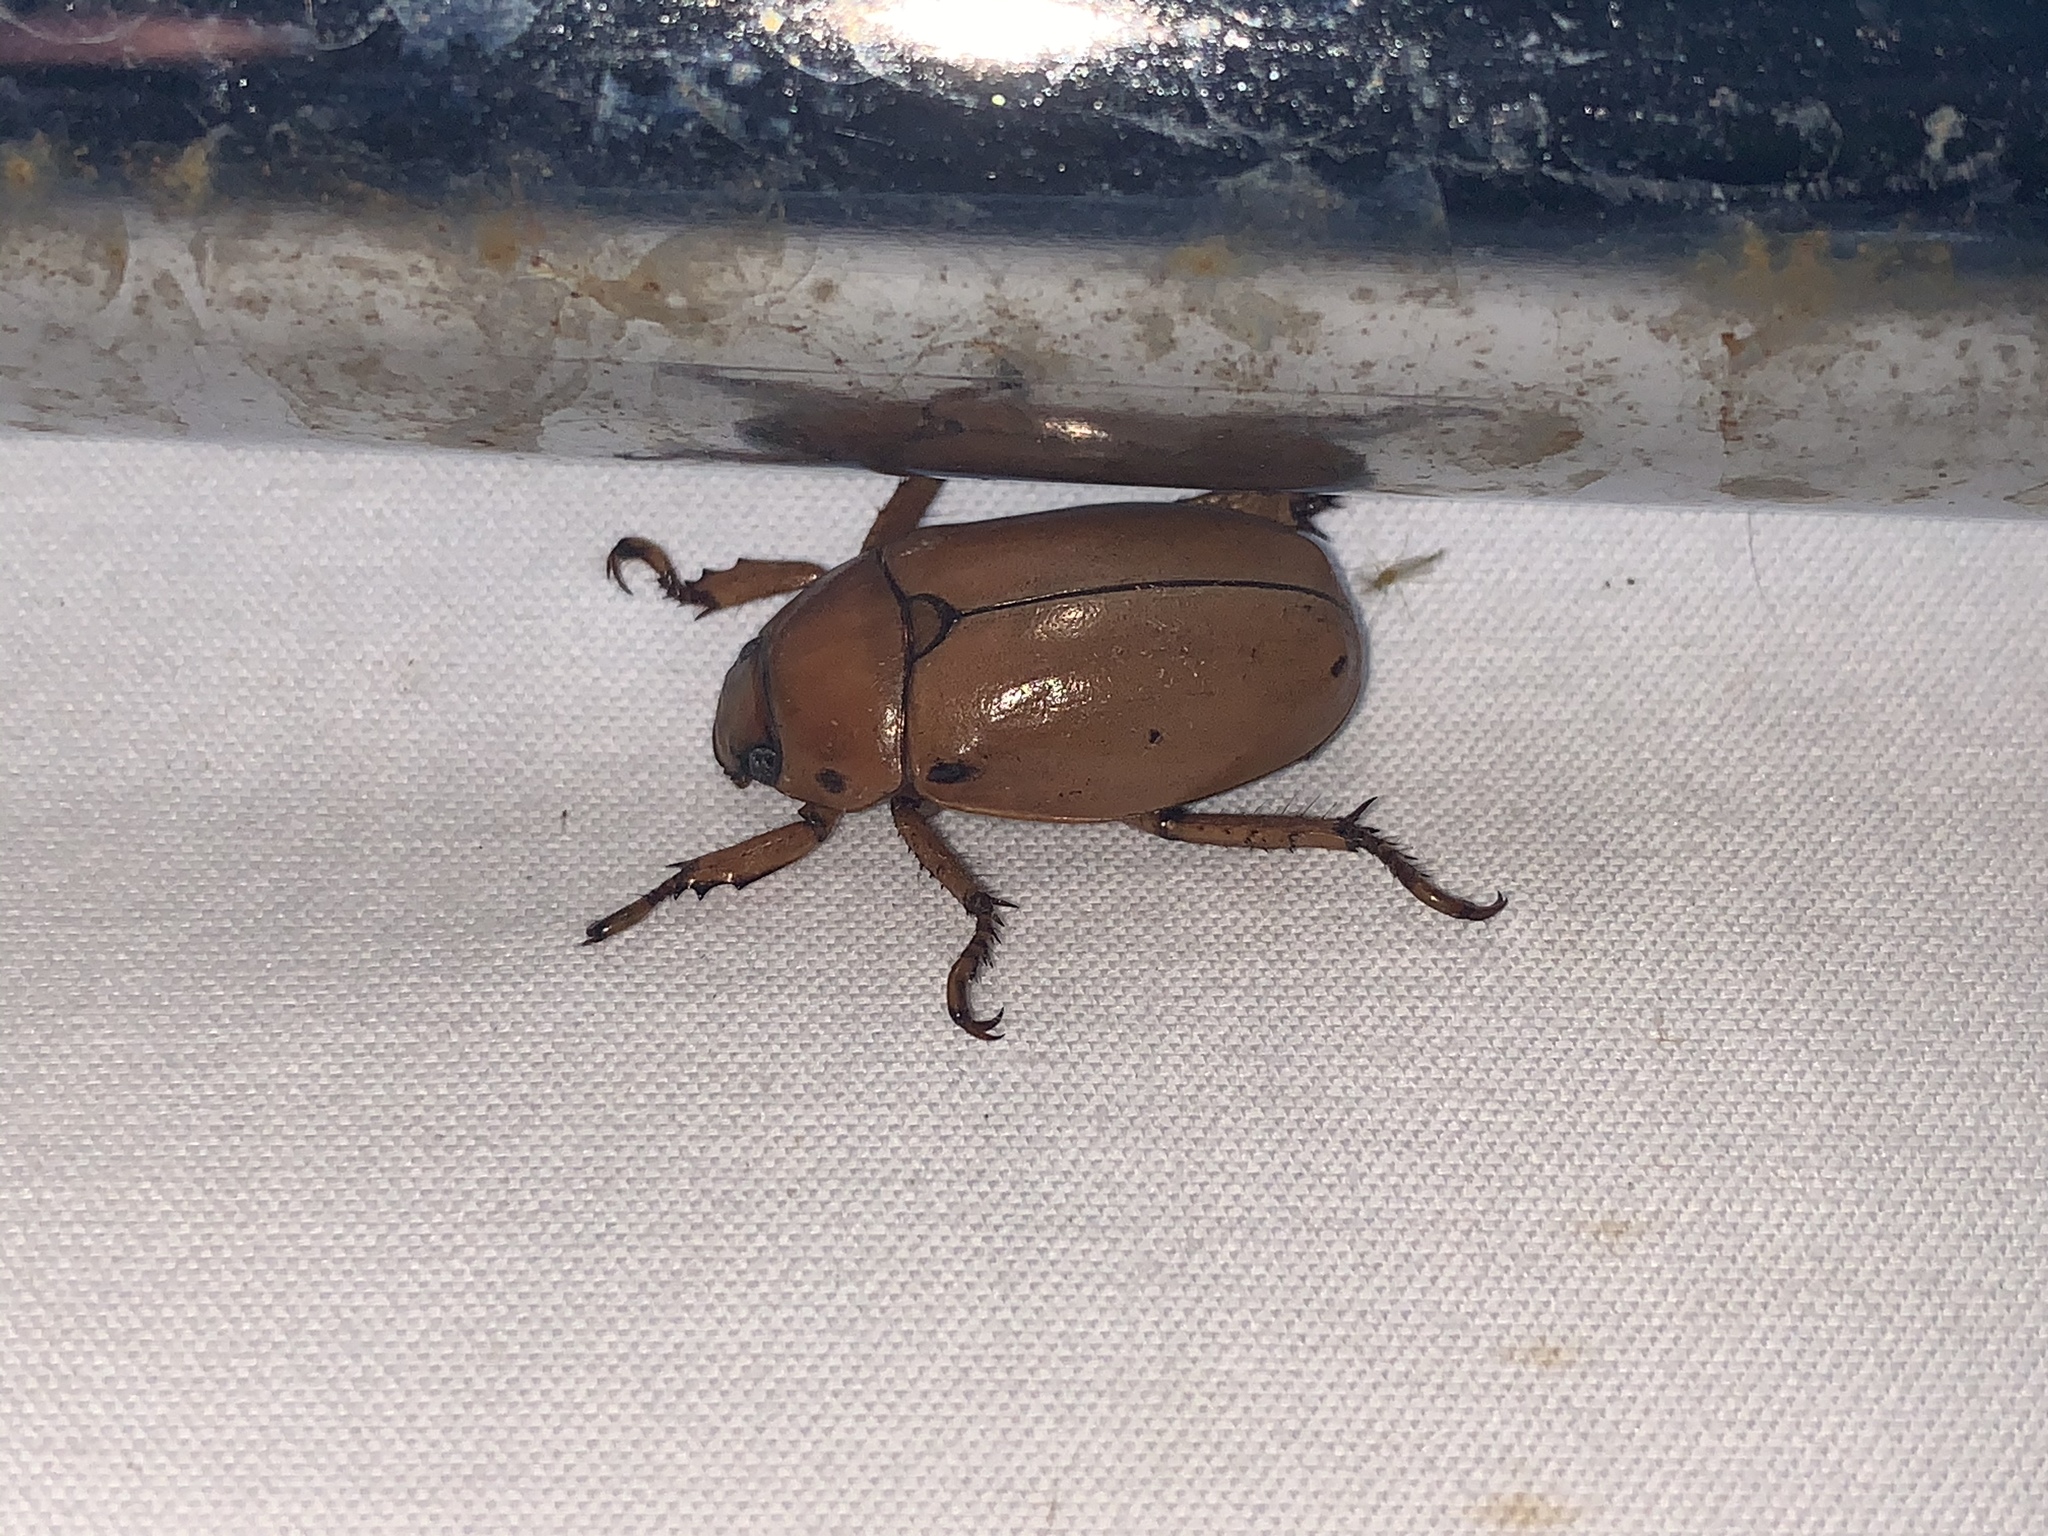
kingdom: Animalia
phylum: Arthropoda
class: Insecta
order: Coleoptera
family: Scarabaeidae
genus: Pelidnota
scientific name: Pelidnota punctata
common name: Grapevine beetle
